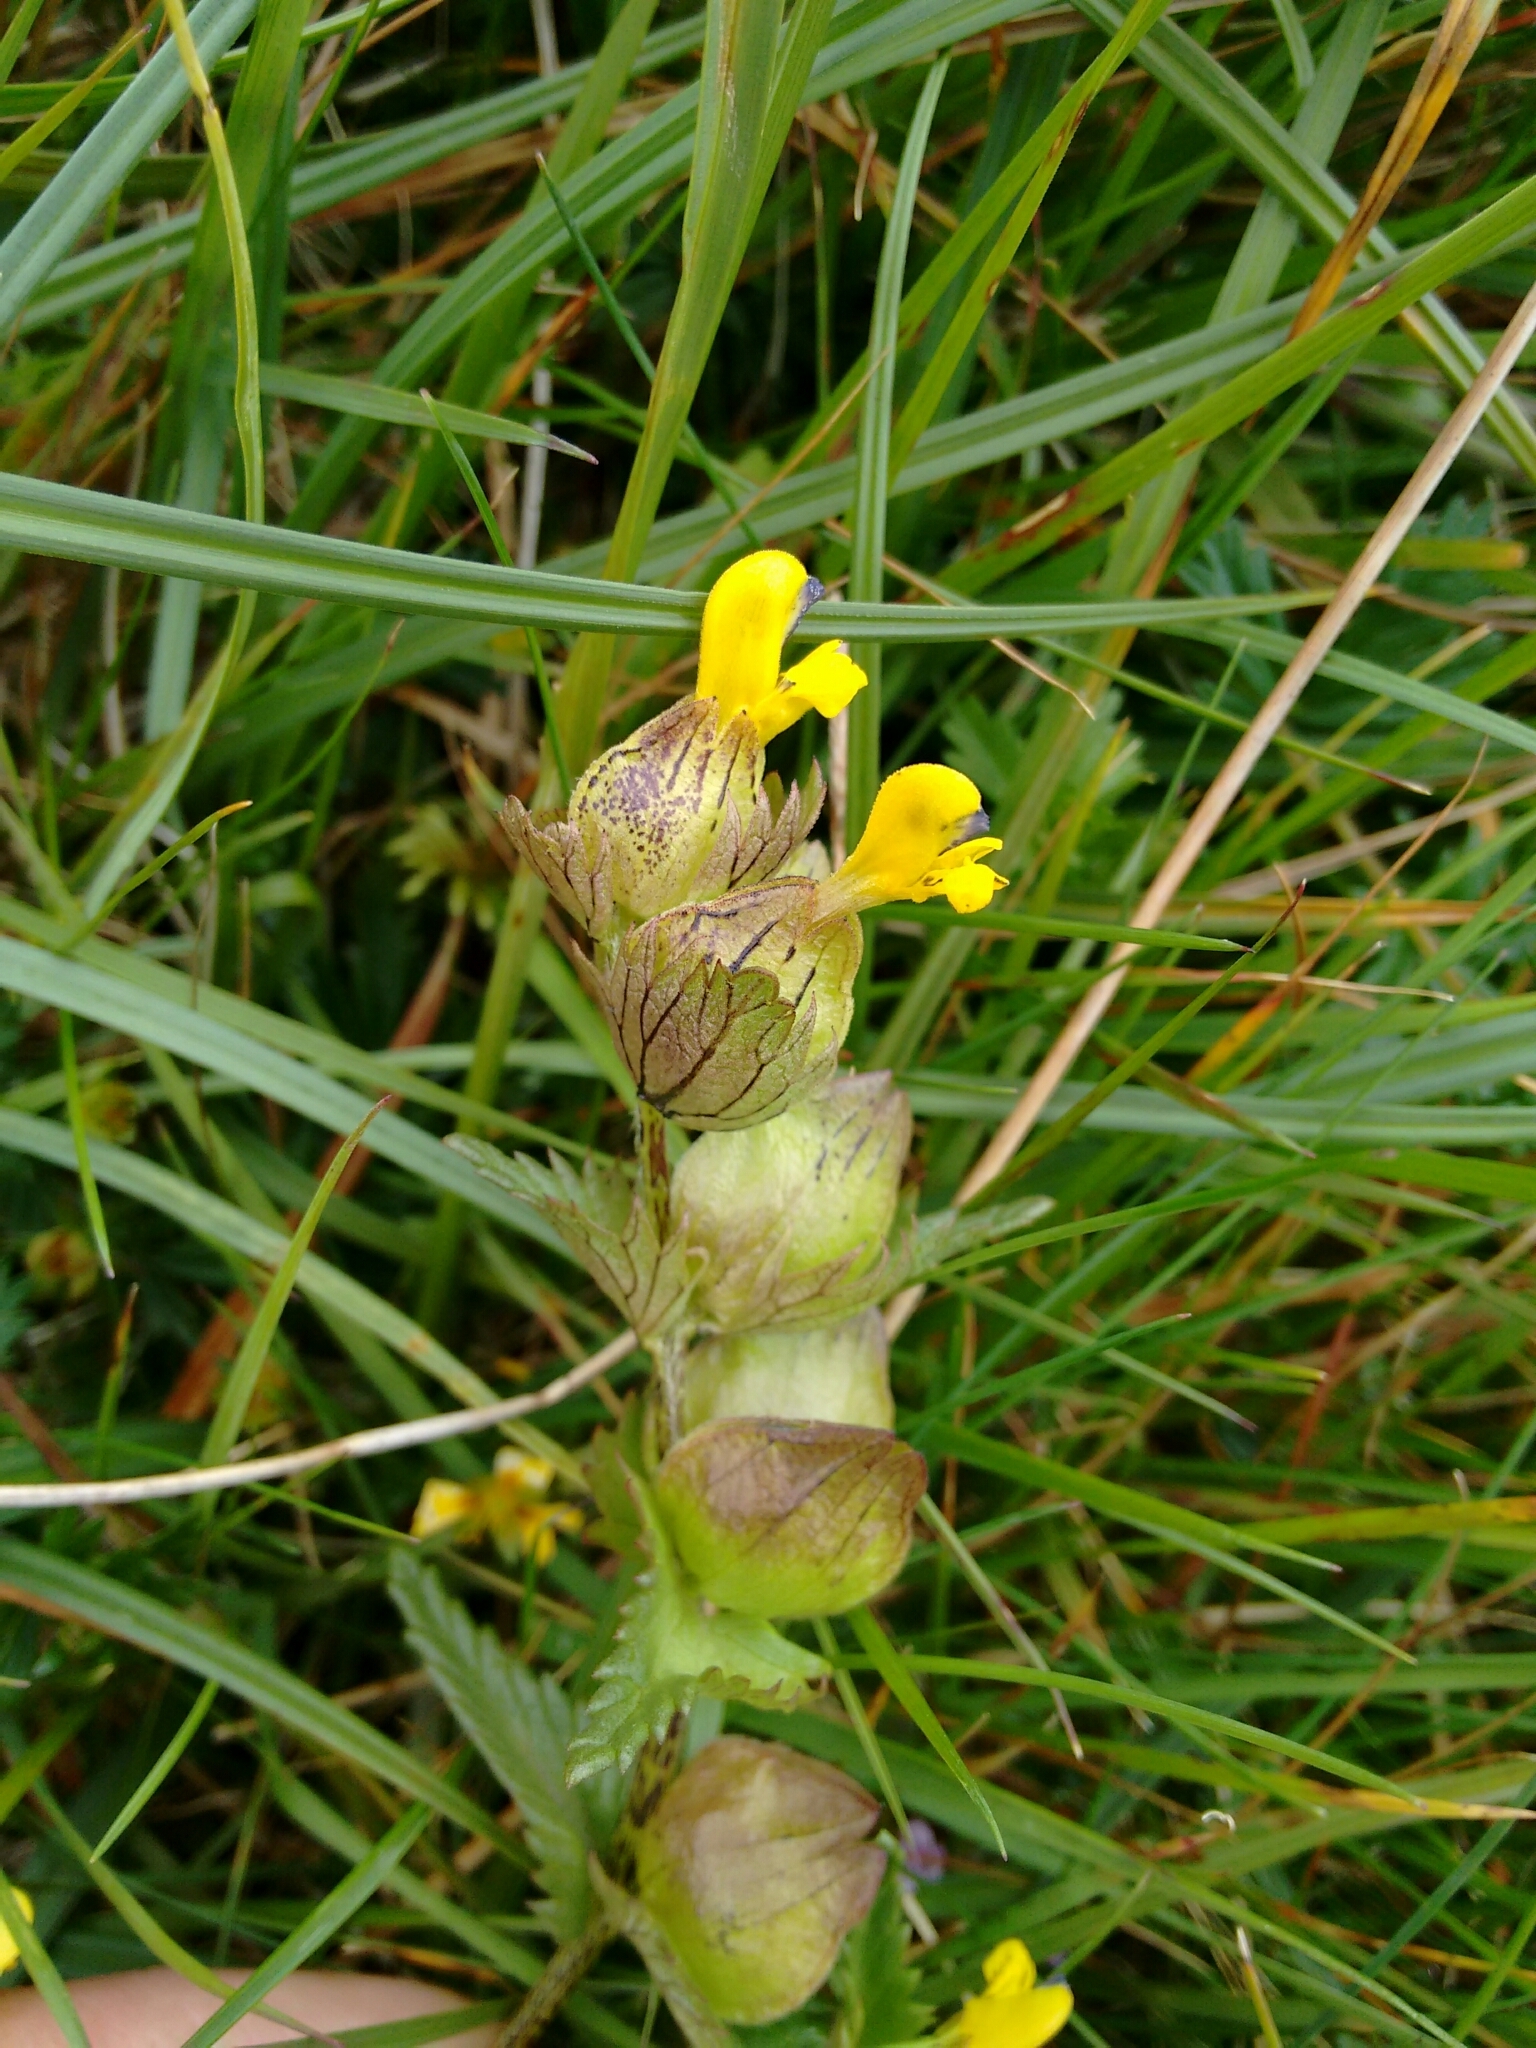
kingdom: Plantae
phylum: Tracheophyta
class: Magnoliopsida
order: Lamiales
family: Orobanchaceae
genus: Rhinanthus
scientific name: Rhinanthus minor
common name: Yellow-rattle
